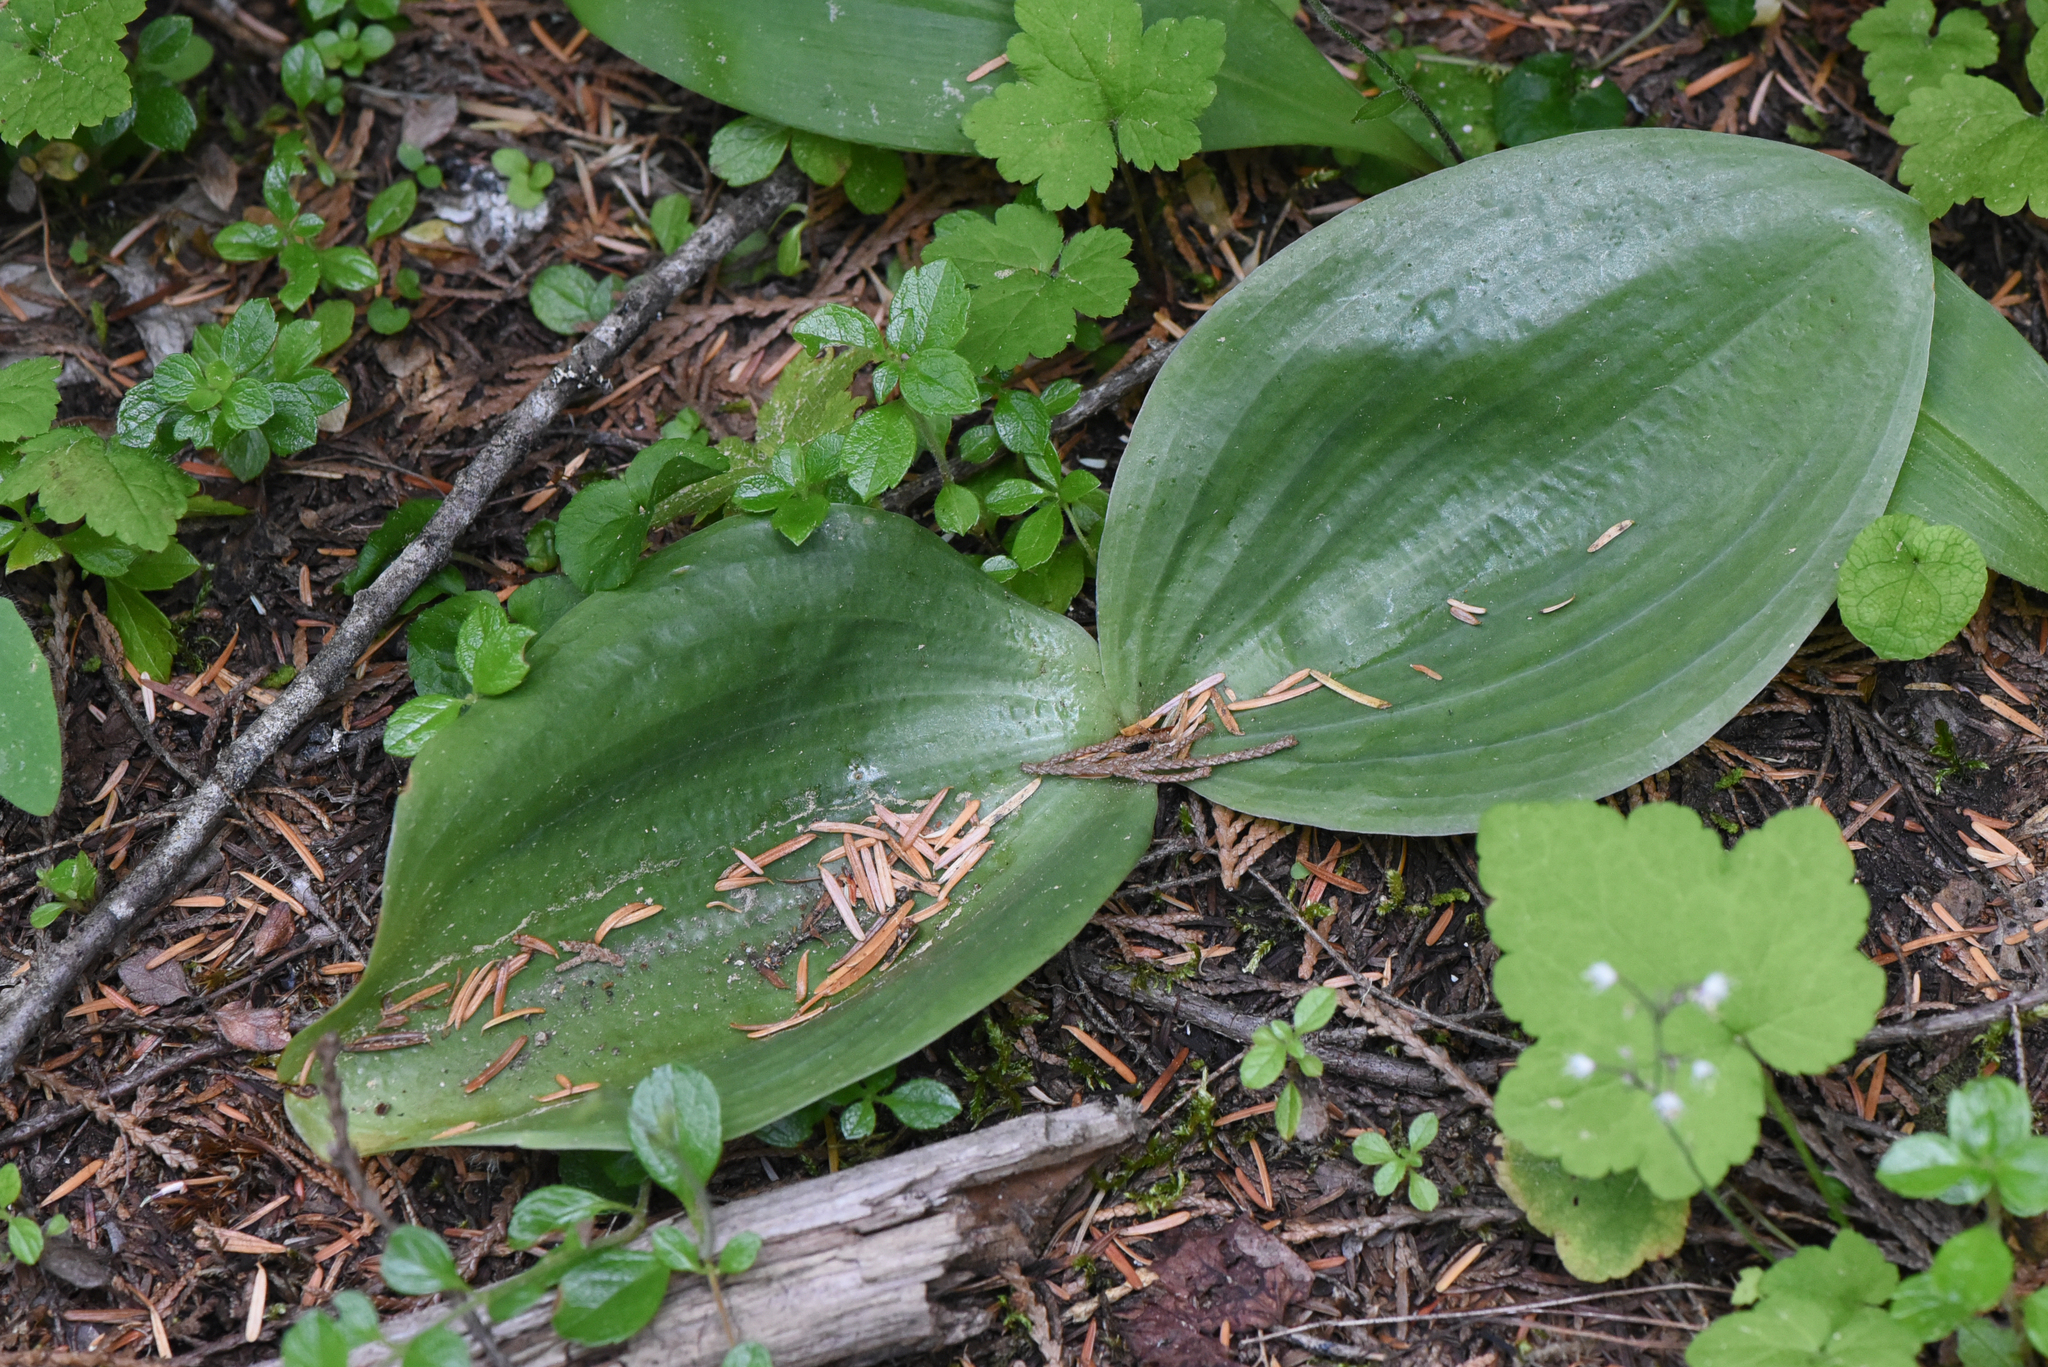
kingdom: Plantae
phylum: Tracheophyta
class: Liliopsida
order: Asparagales
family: Orchidaceae
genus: Platanthera
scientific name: Platanthera orbiculata
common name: Large round-leaved orchid
